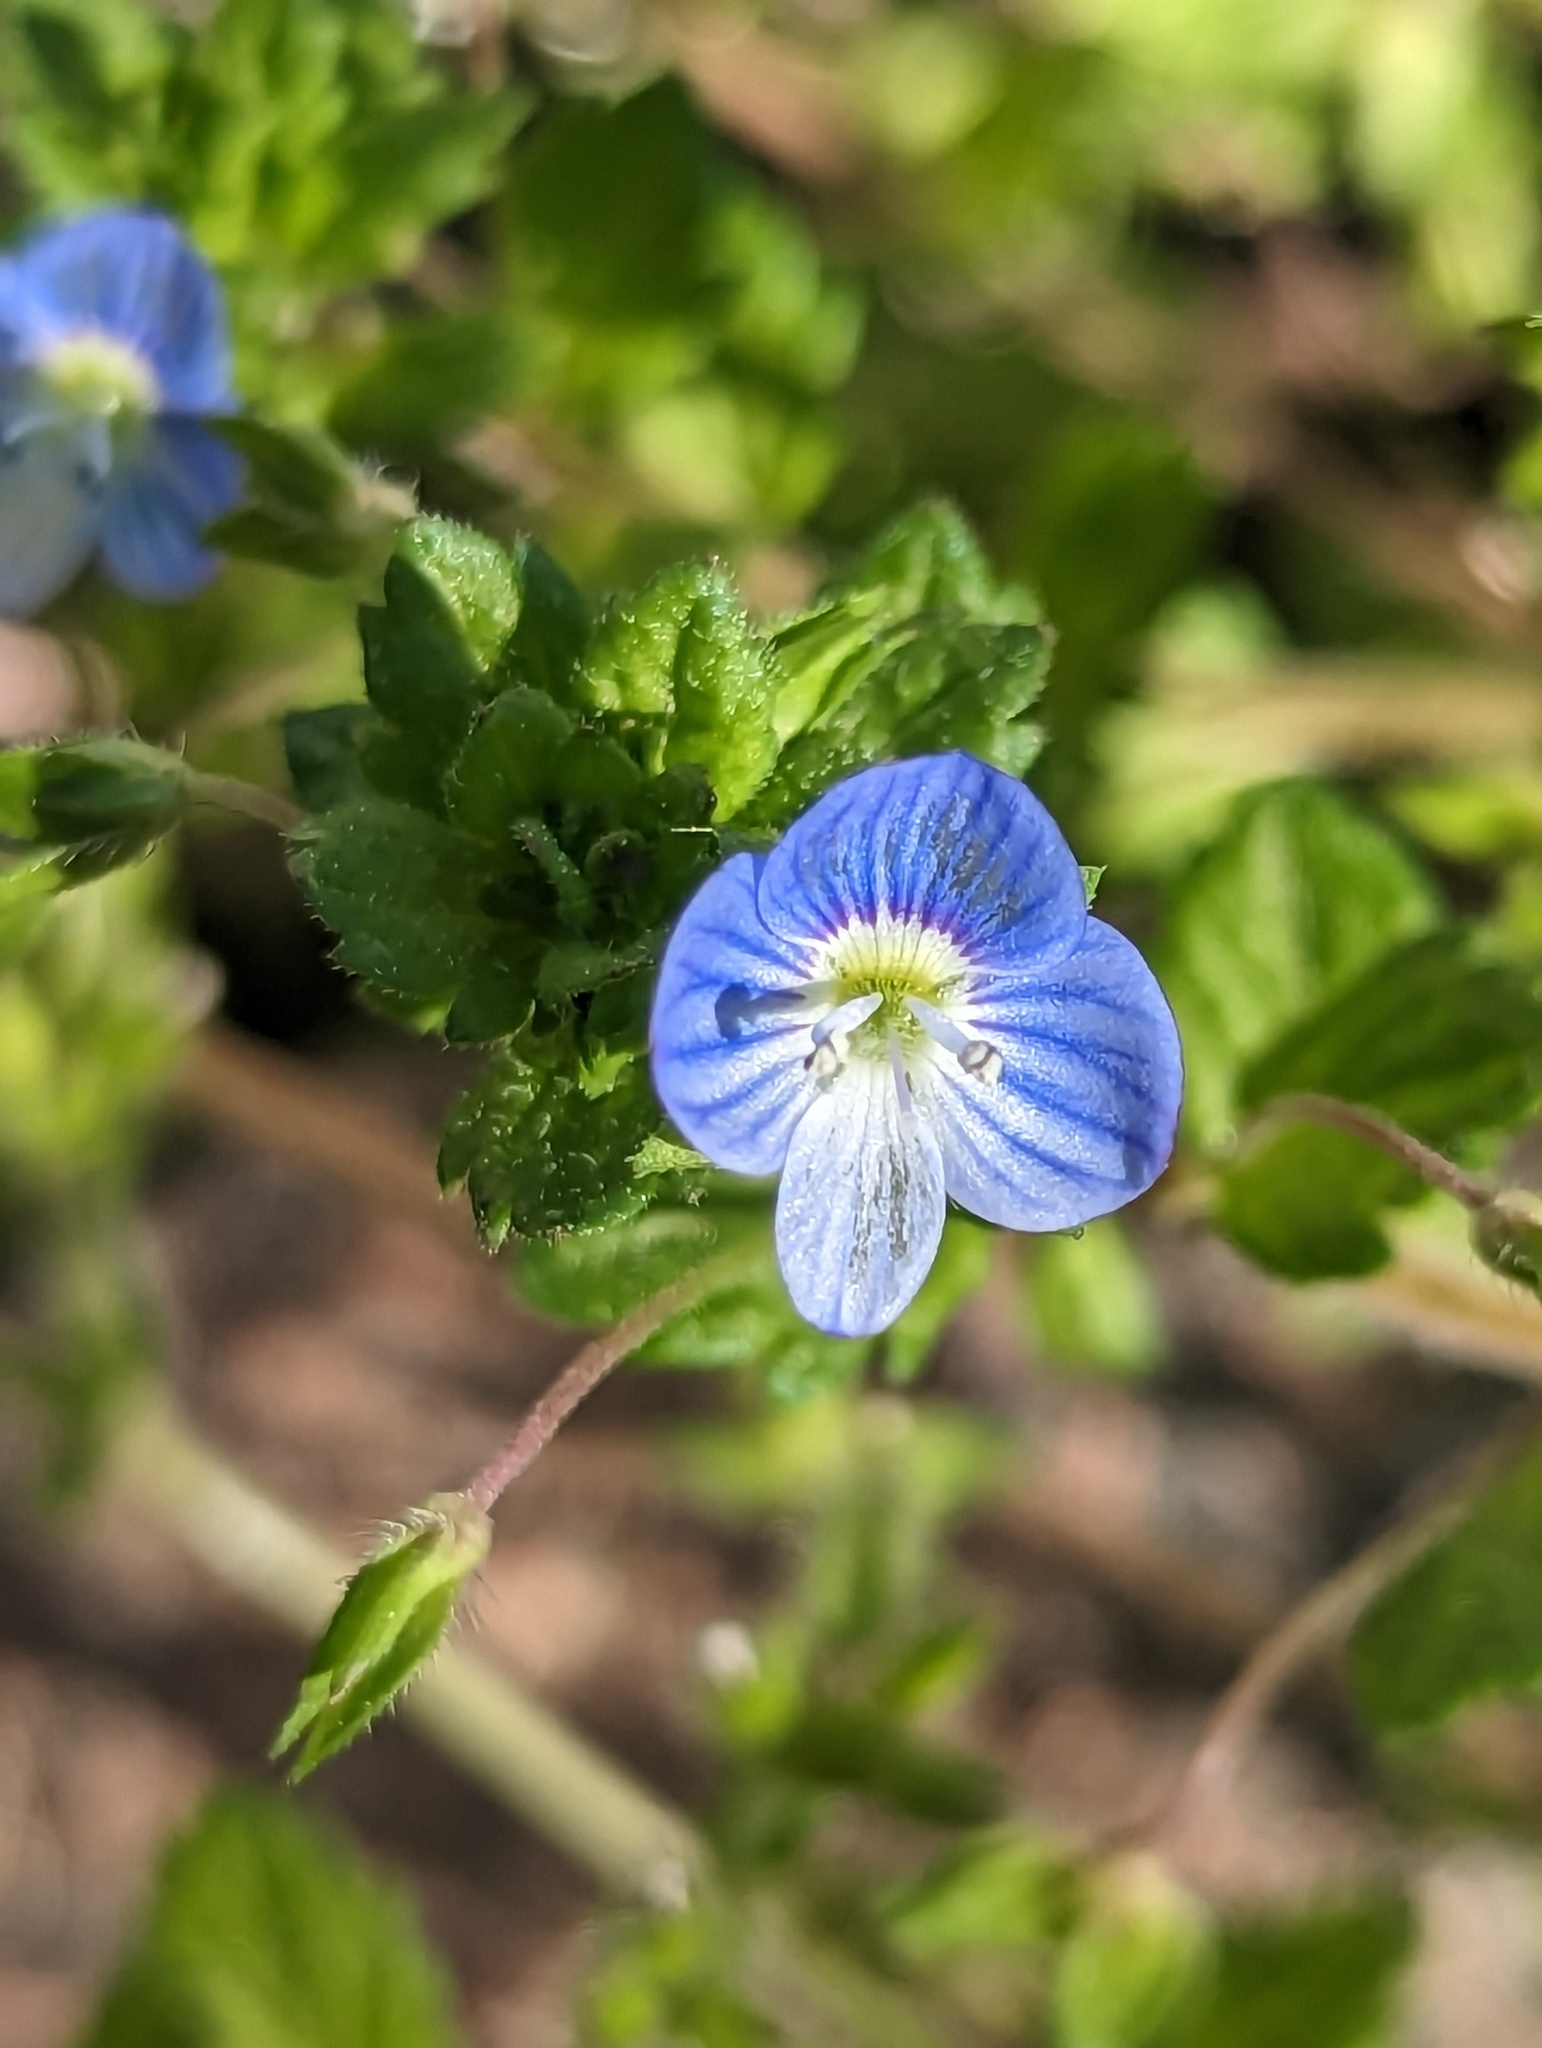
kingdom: Plantae
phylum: Tracheophyta
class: Magnoliopsida
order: Lamiales
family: Plantaginaceae
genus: Veronica
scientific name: Veronica persica
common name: Common field-speedwell
